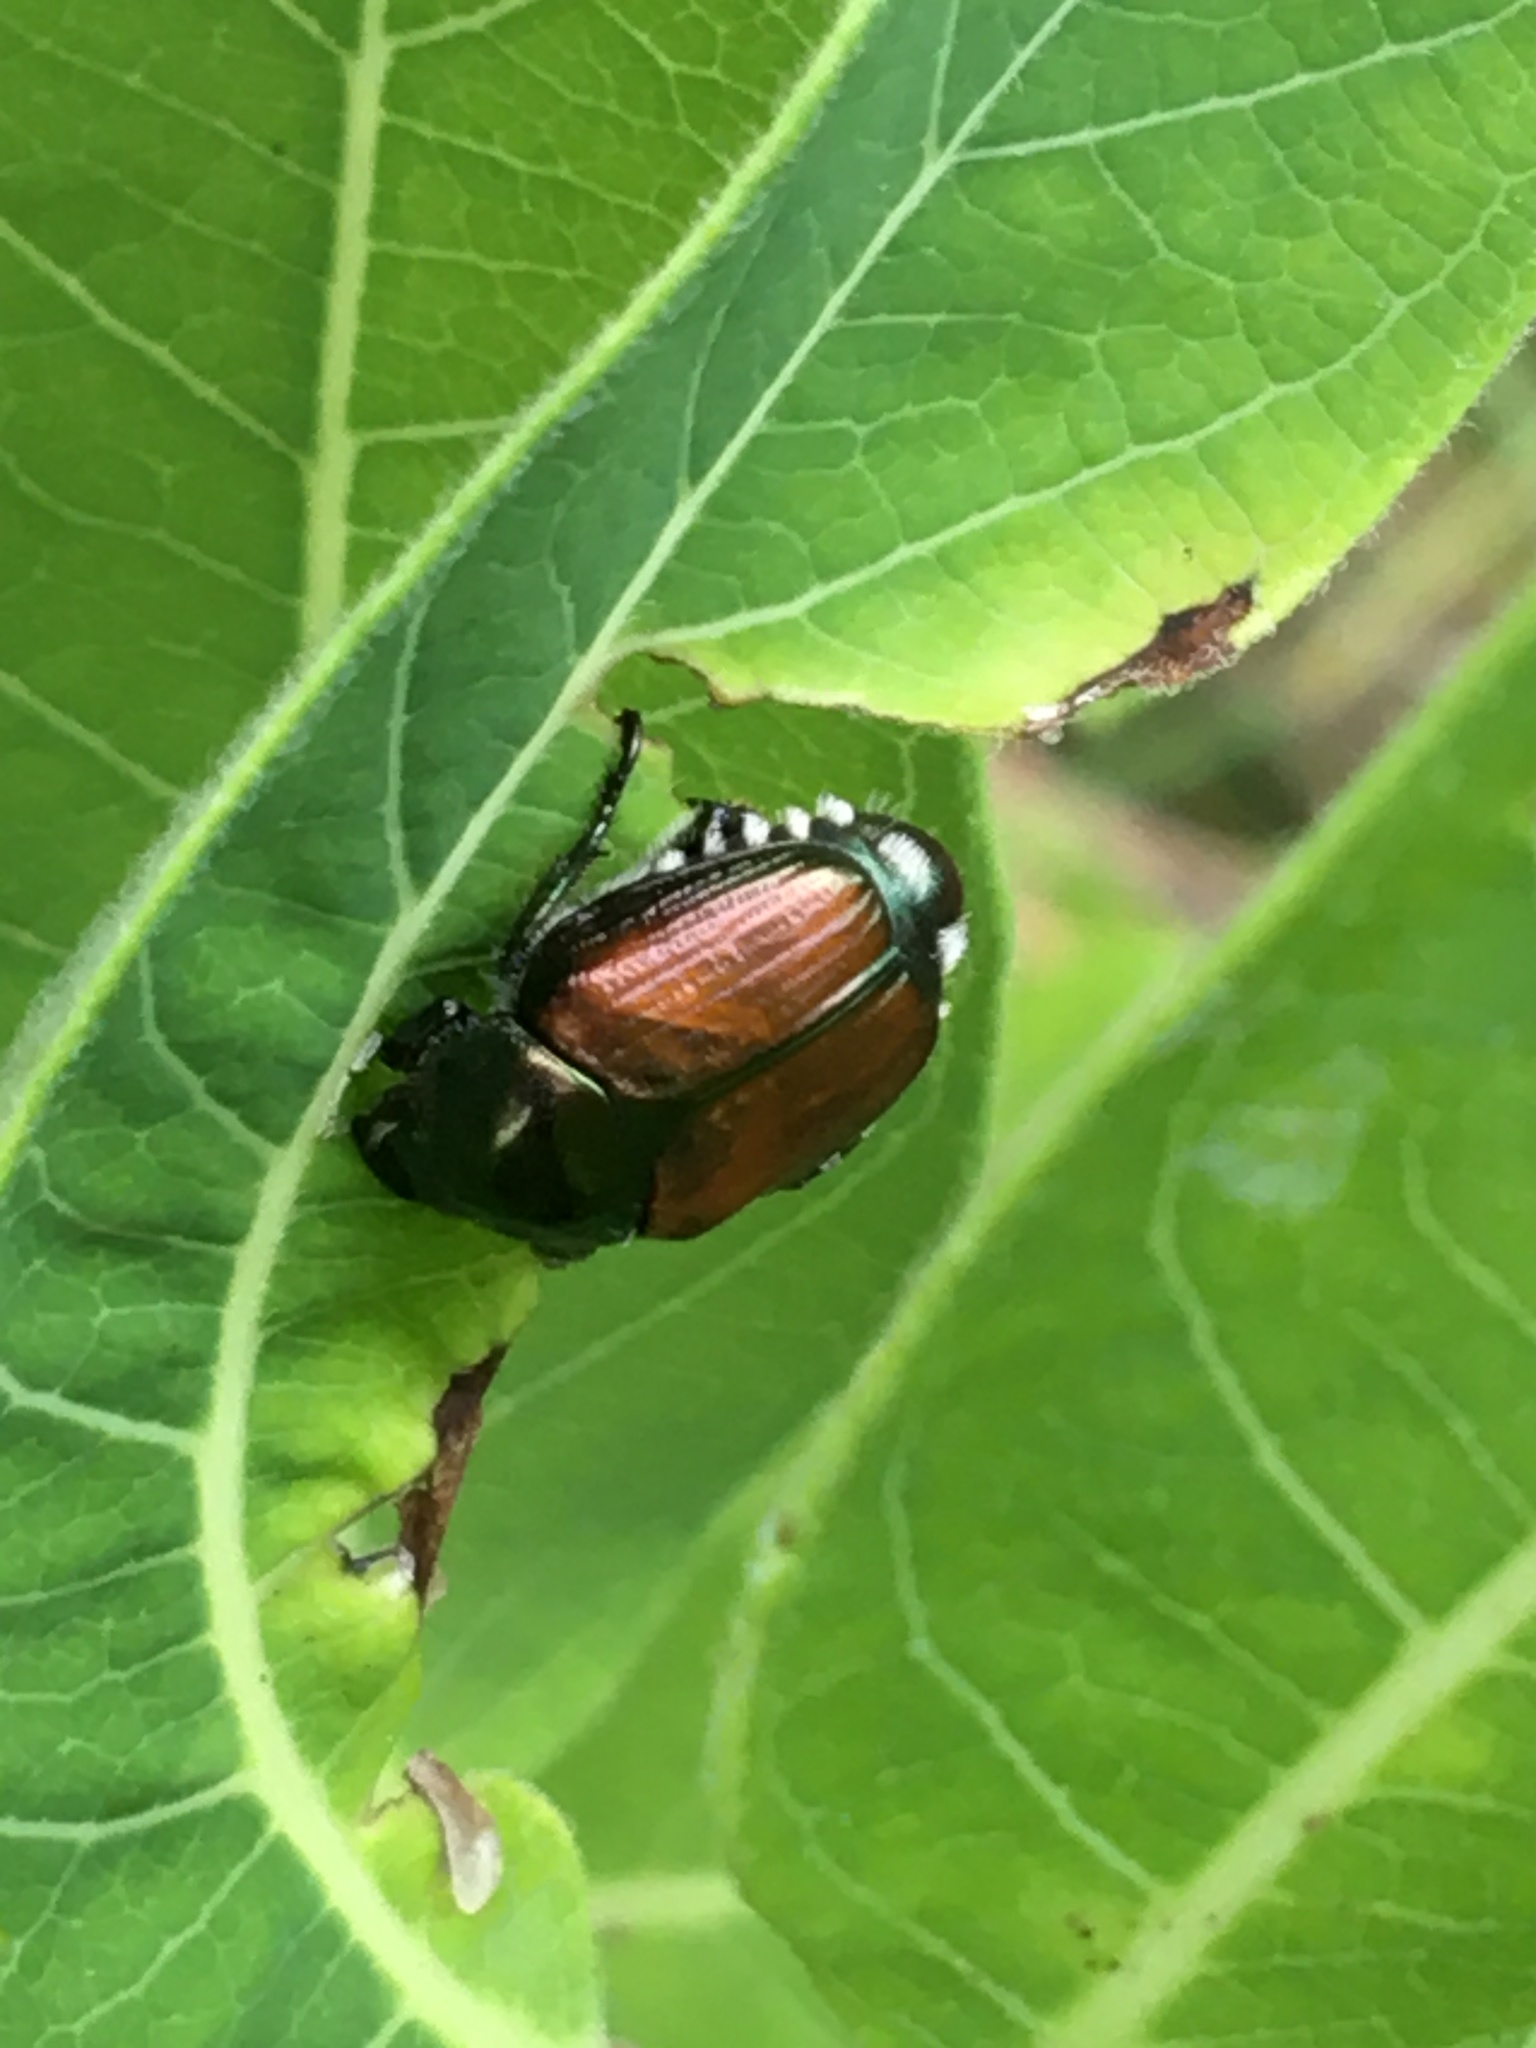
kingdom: Animalia
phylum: Arthropoda
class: Insecta
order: Coleoptera
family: Scarabaeidae
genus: Popillia
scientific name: Popillia japonica
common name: Japanese beetle
